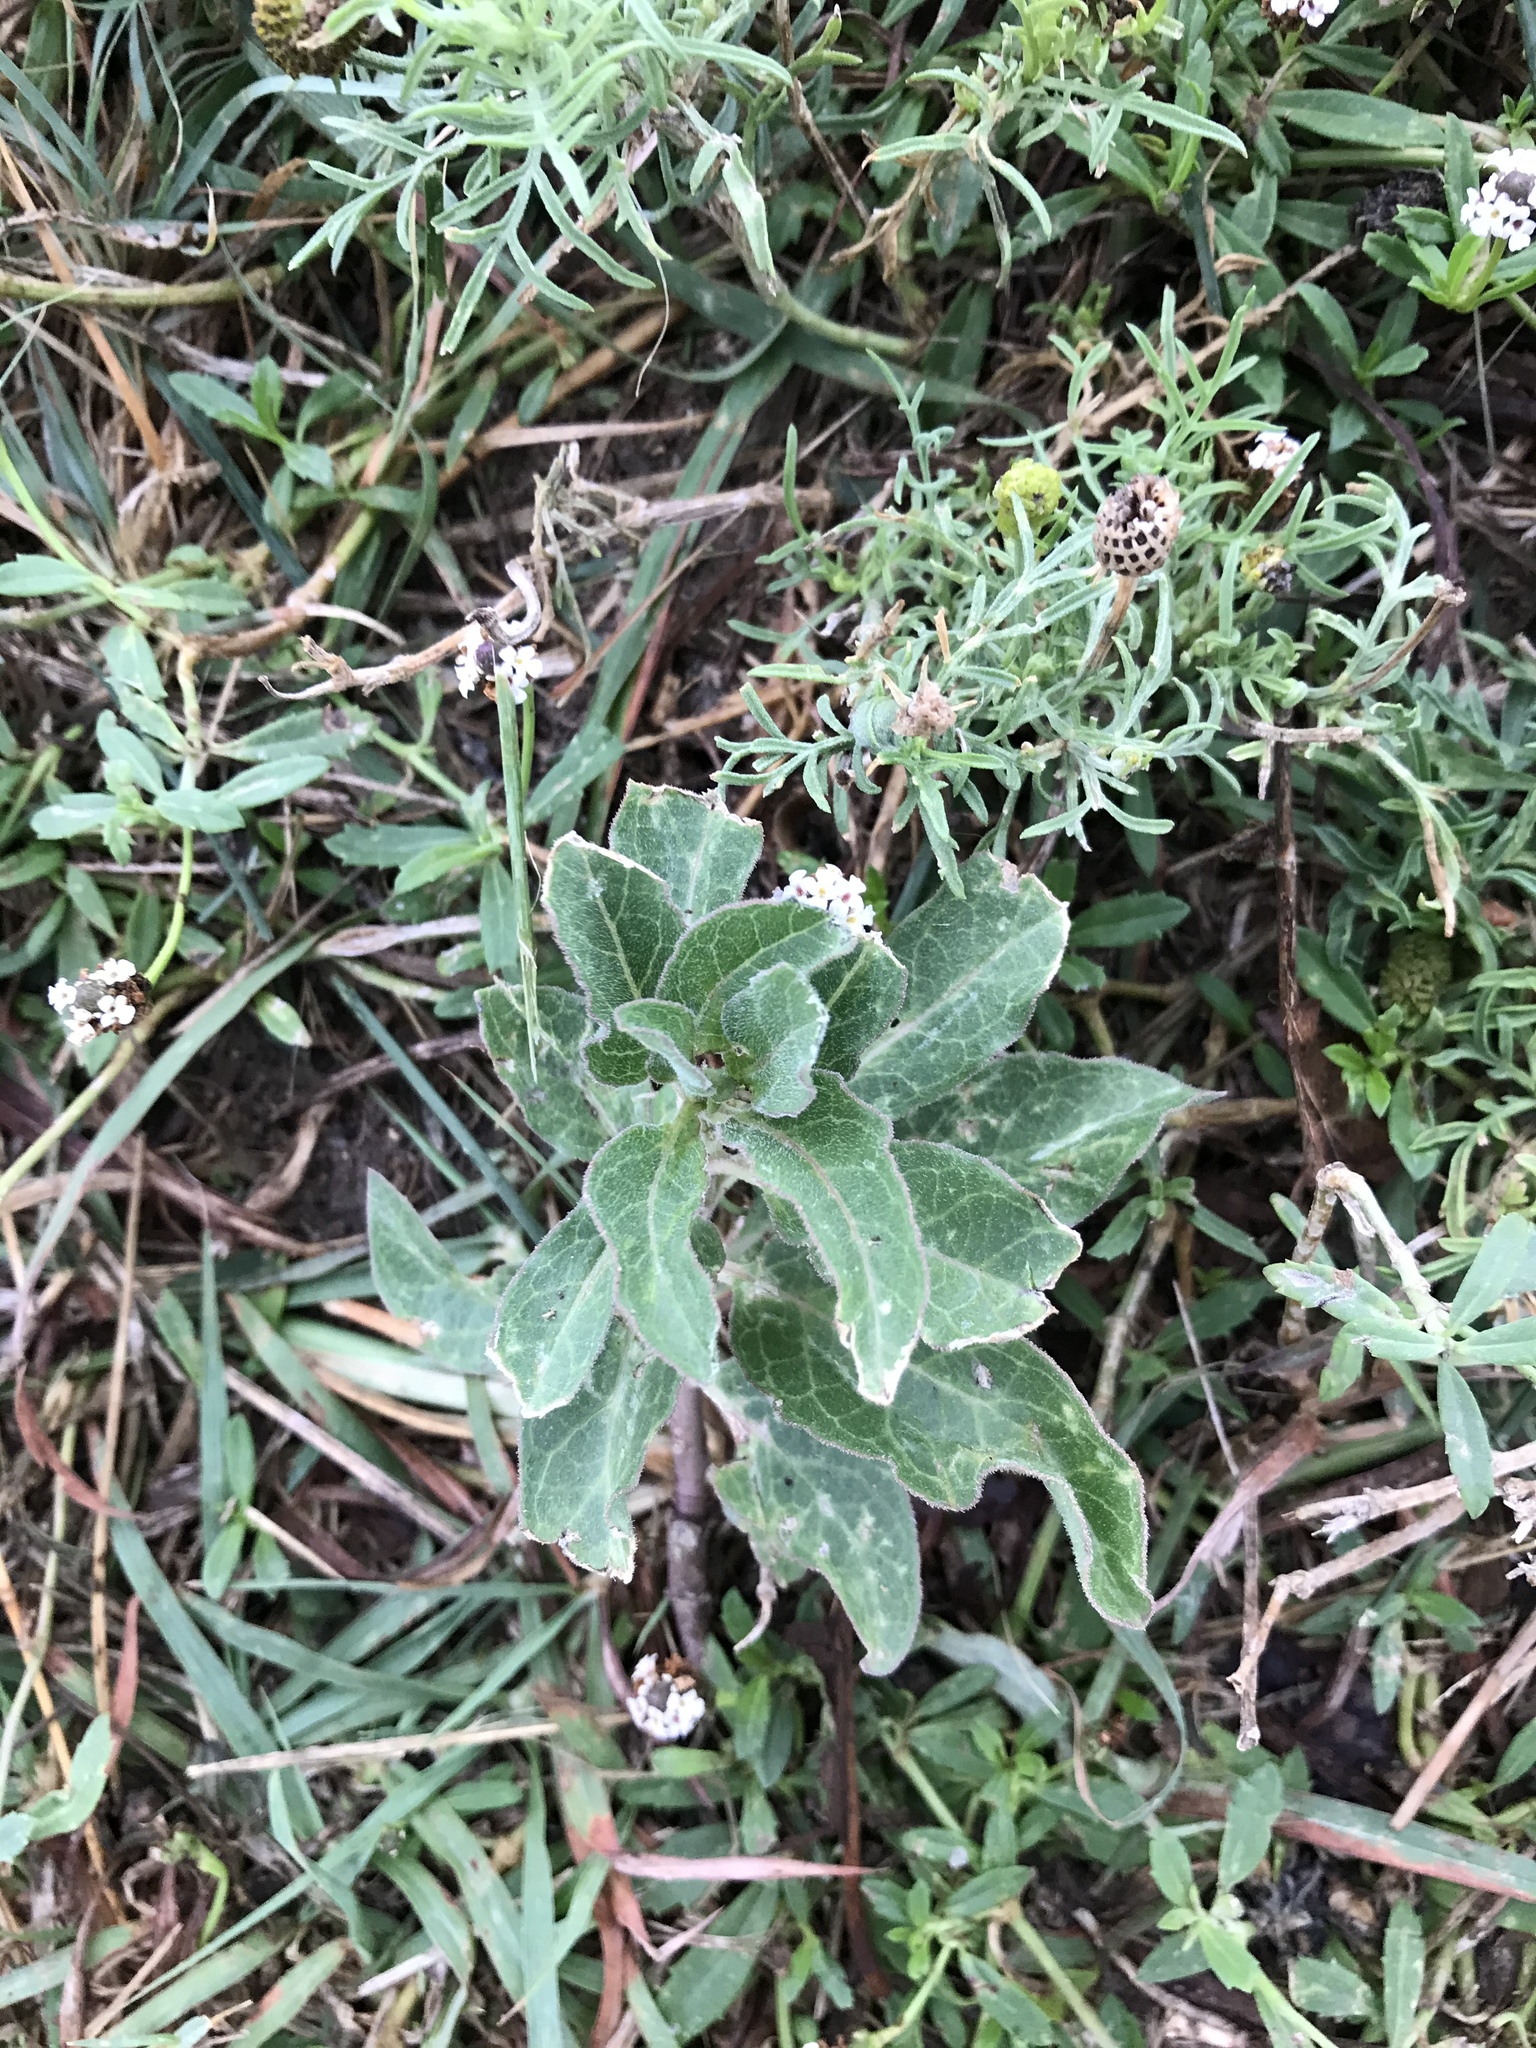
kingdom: Plantae
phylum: Tracheophyta
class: Magnoliopsida
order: Gentianales
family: Apocynaceae
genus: Asclepias
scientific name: Asclepias oenotheroides
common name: Zizotes milkweed
